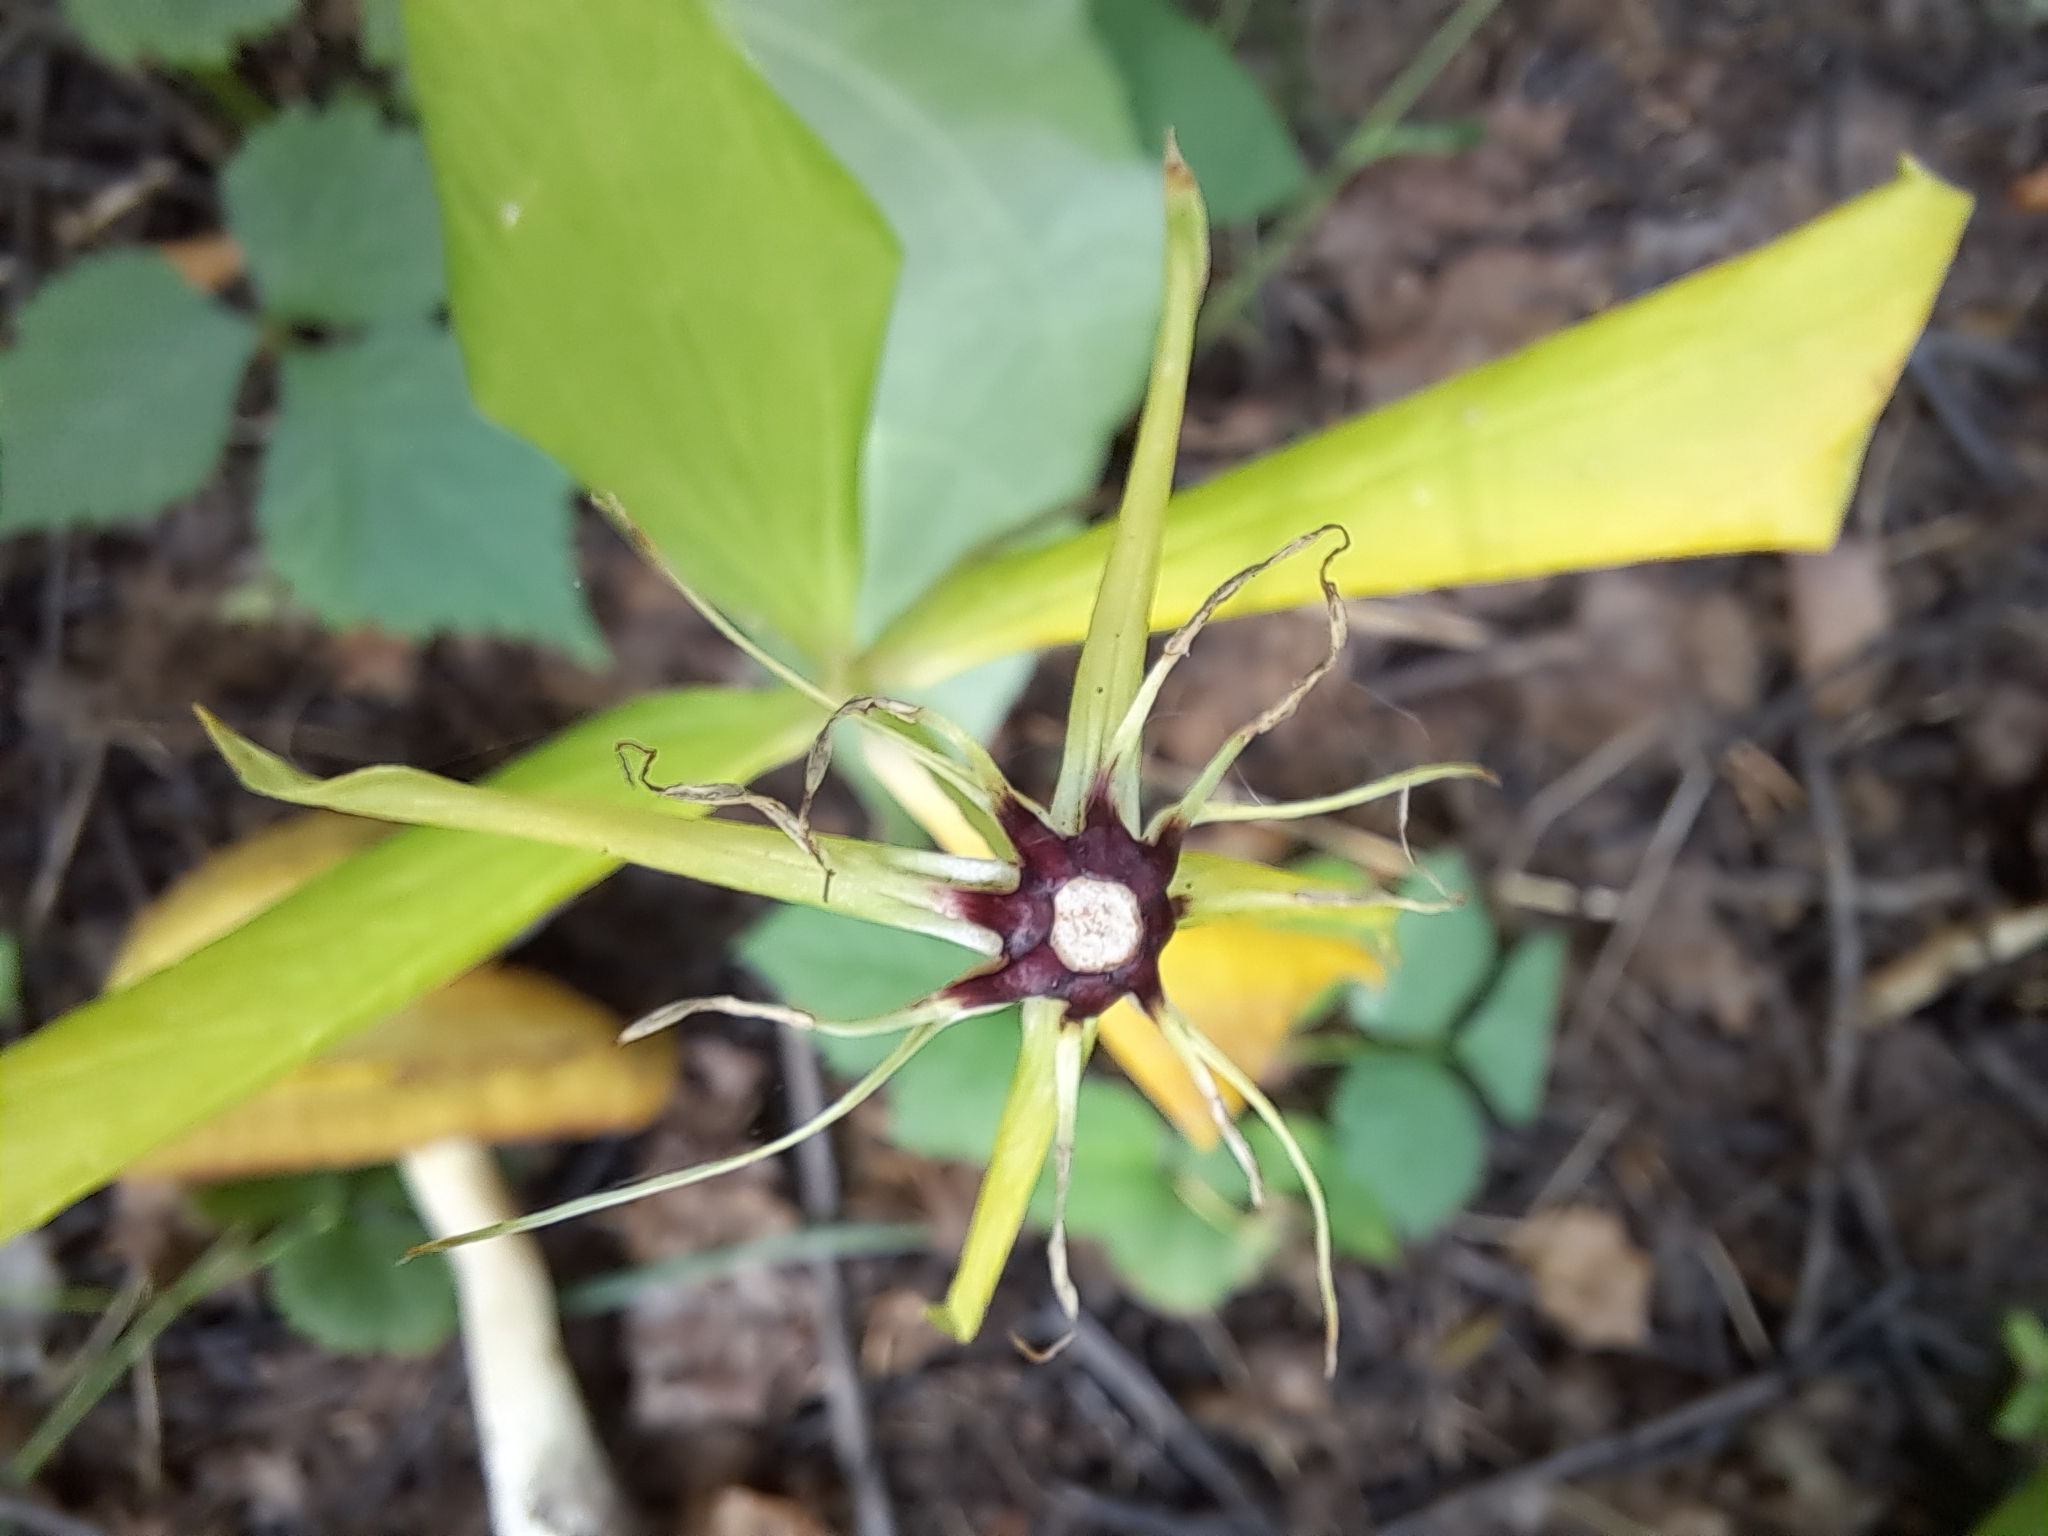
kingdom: Plantae
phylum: Tracheophyta
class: Liliopsida
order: Liliales
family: Melanthiaceae
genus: Paris
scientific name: Paris quadrifolia
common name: Herb-paris
